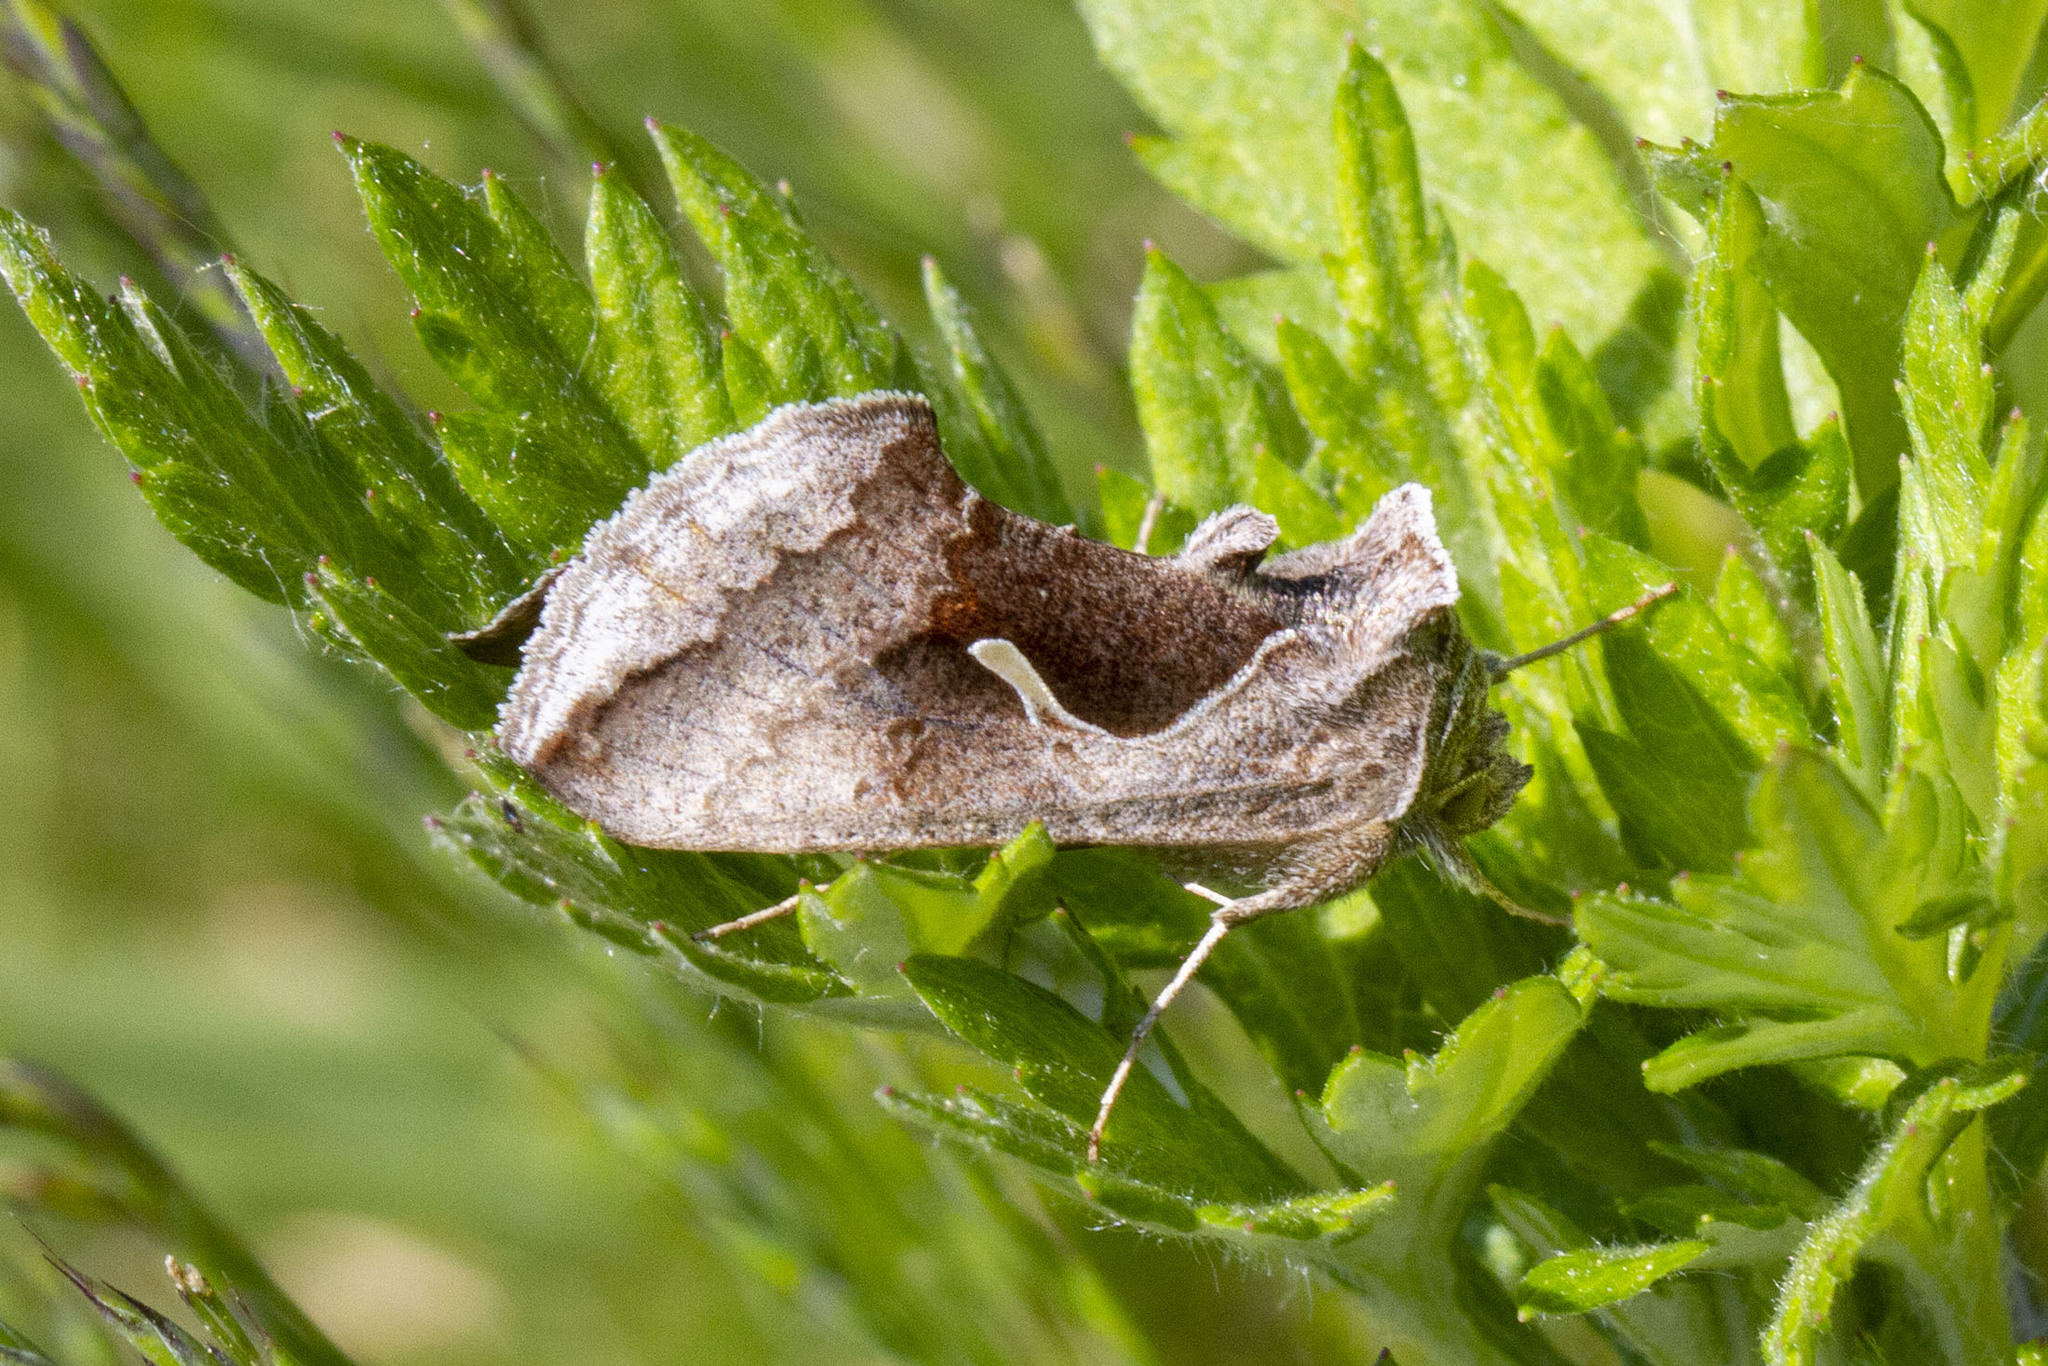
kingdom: Animalia
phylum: Arthropoda
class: Insecta
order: Lepidoptera
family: Noctuidae
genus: Anagrapha
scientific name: Anagrapha falcifera
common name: Celery looper
